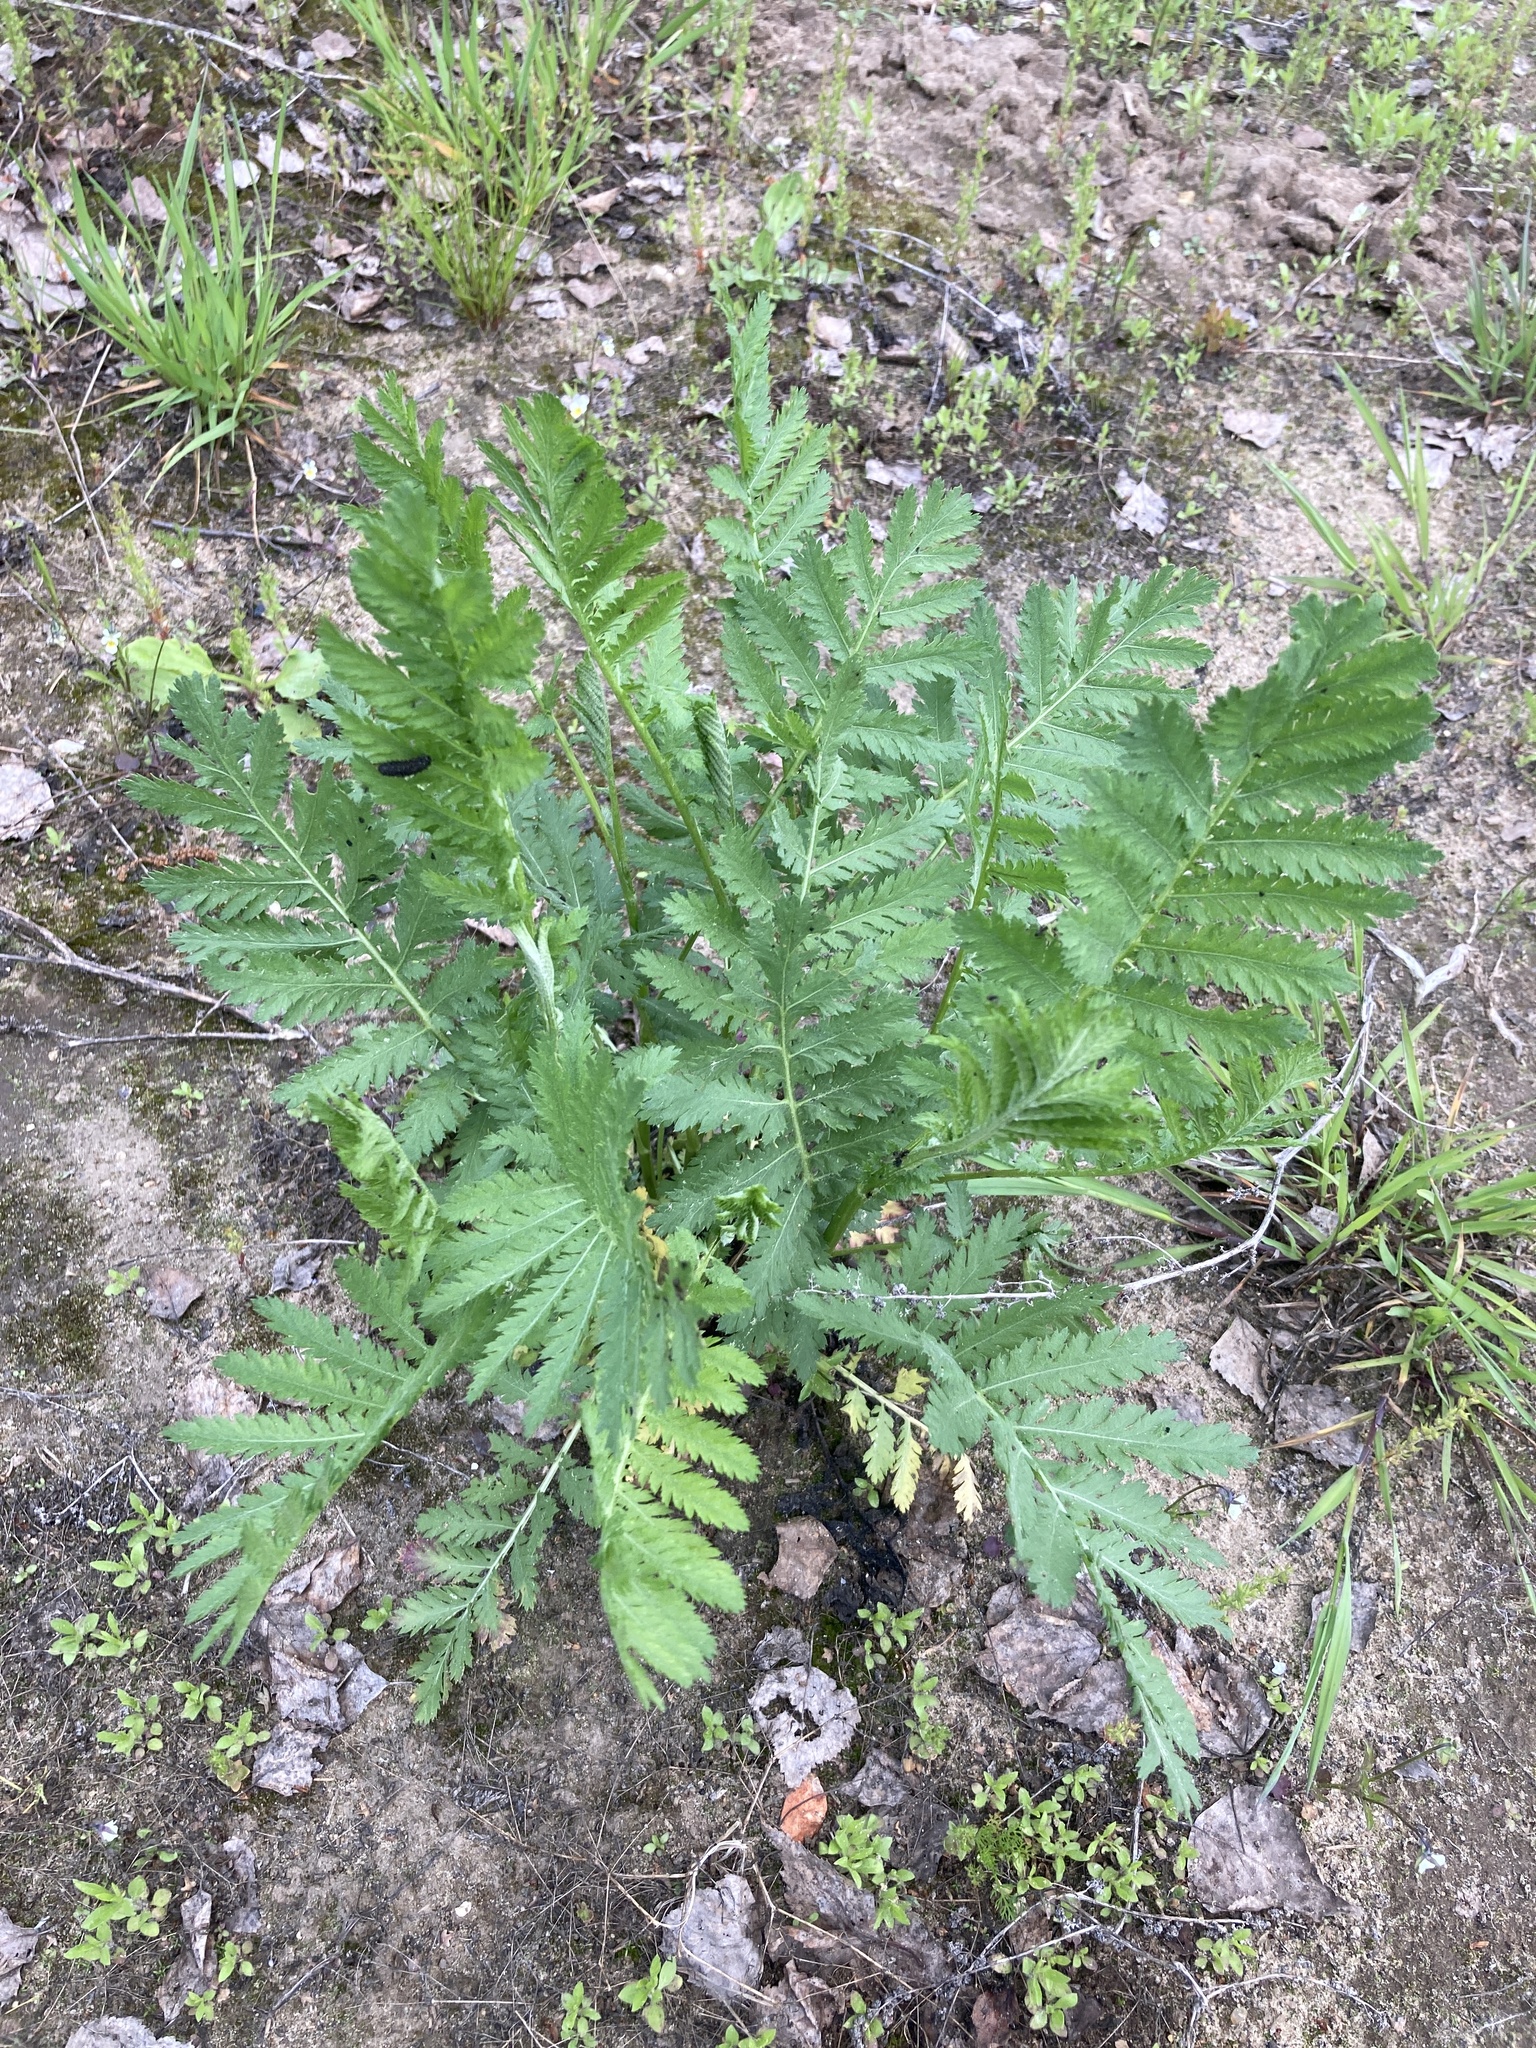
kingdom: Plantae
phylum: Tracheophyta
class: Magnoliopsida
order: Asterales
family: Asteraceae
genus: Tanacetum
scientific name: Tanacetum vulgare
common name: Common tansy
